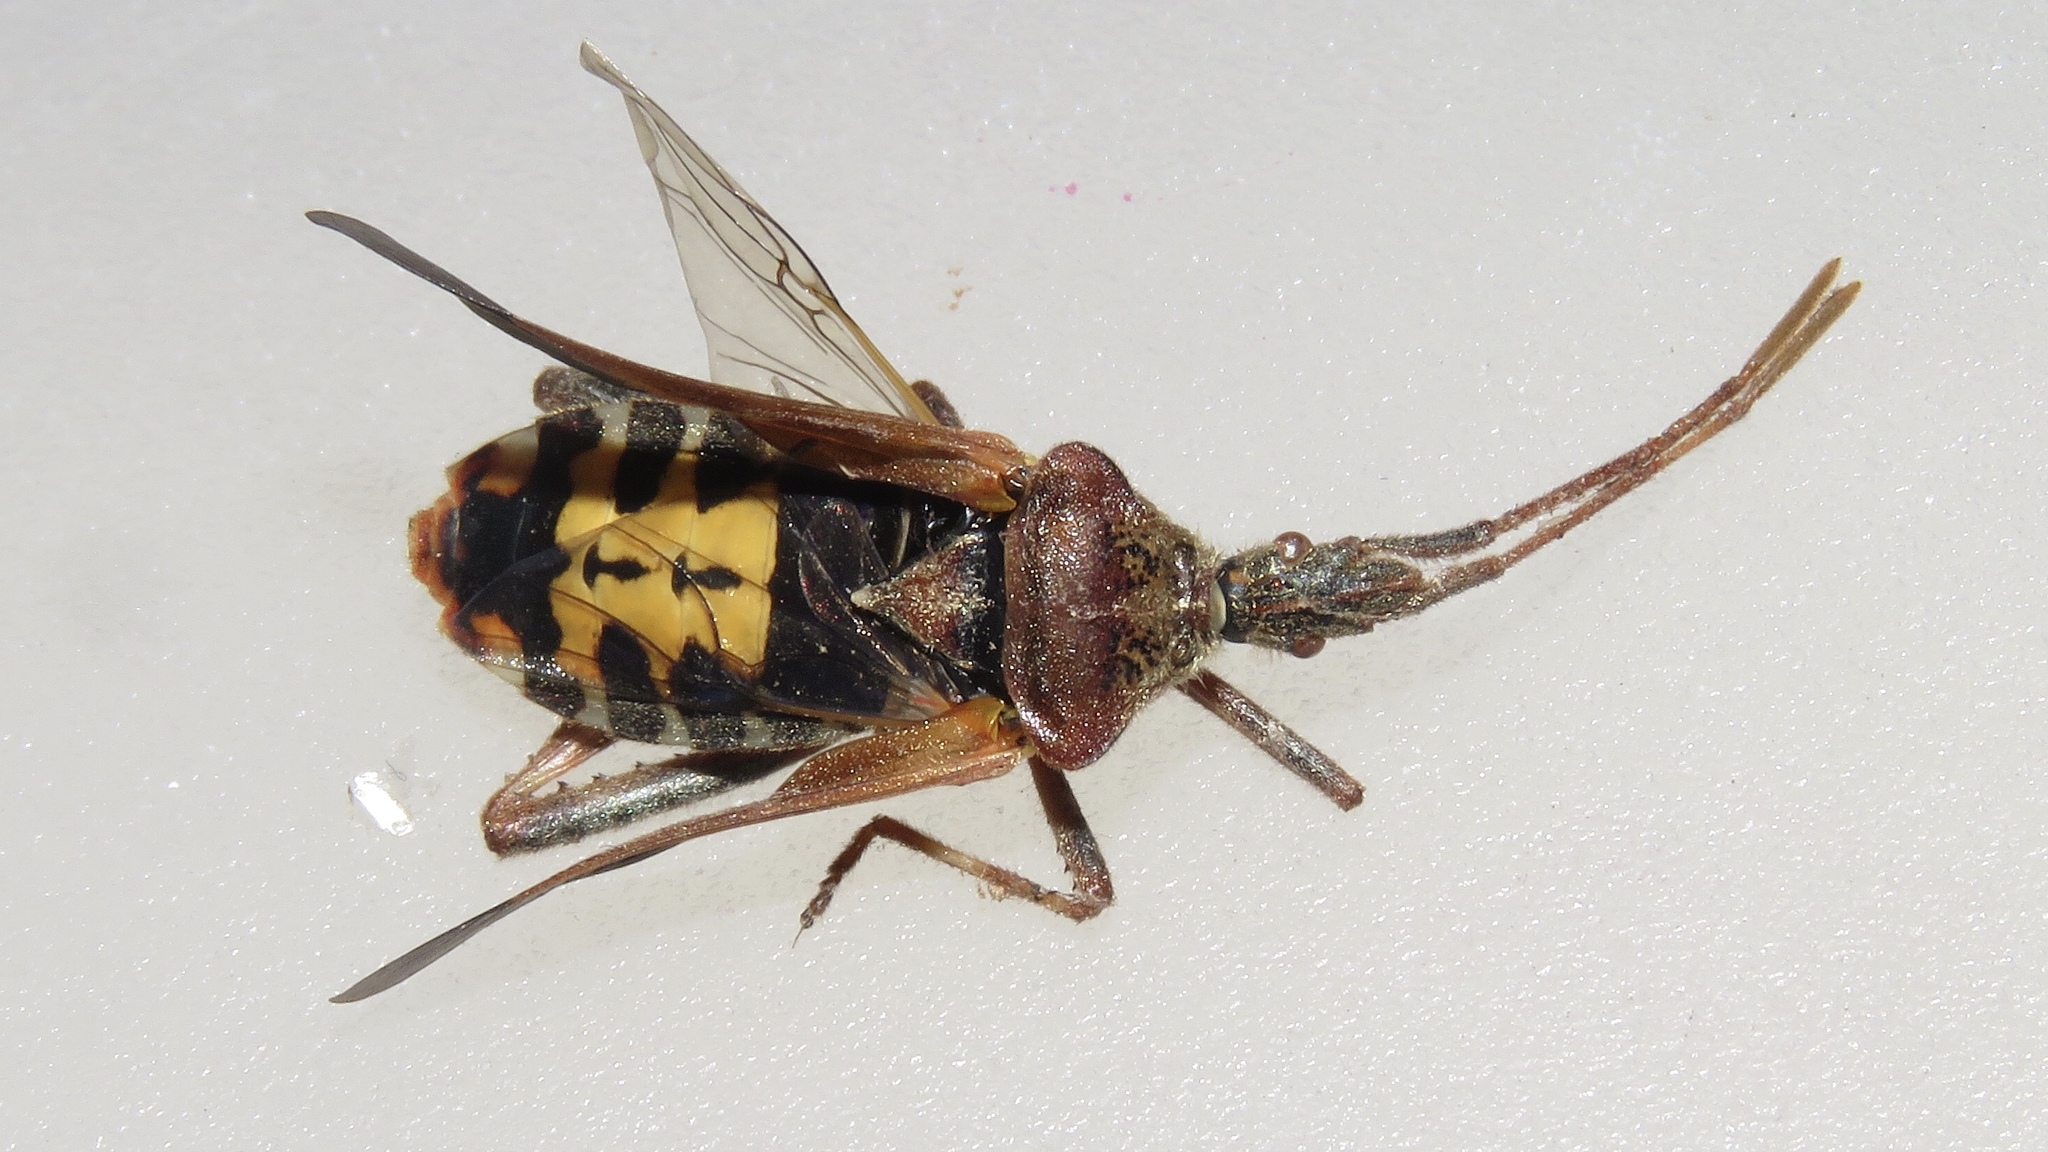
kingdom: Animalia
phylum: Arthropoda
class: Insecta
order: Hemiptera
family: Coreidae
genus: Leptoglossus
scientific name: Leptoglossus occidentalis
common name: Western conifer-seed bug
